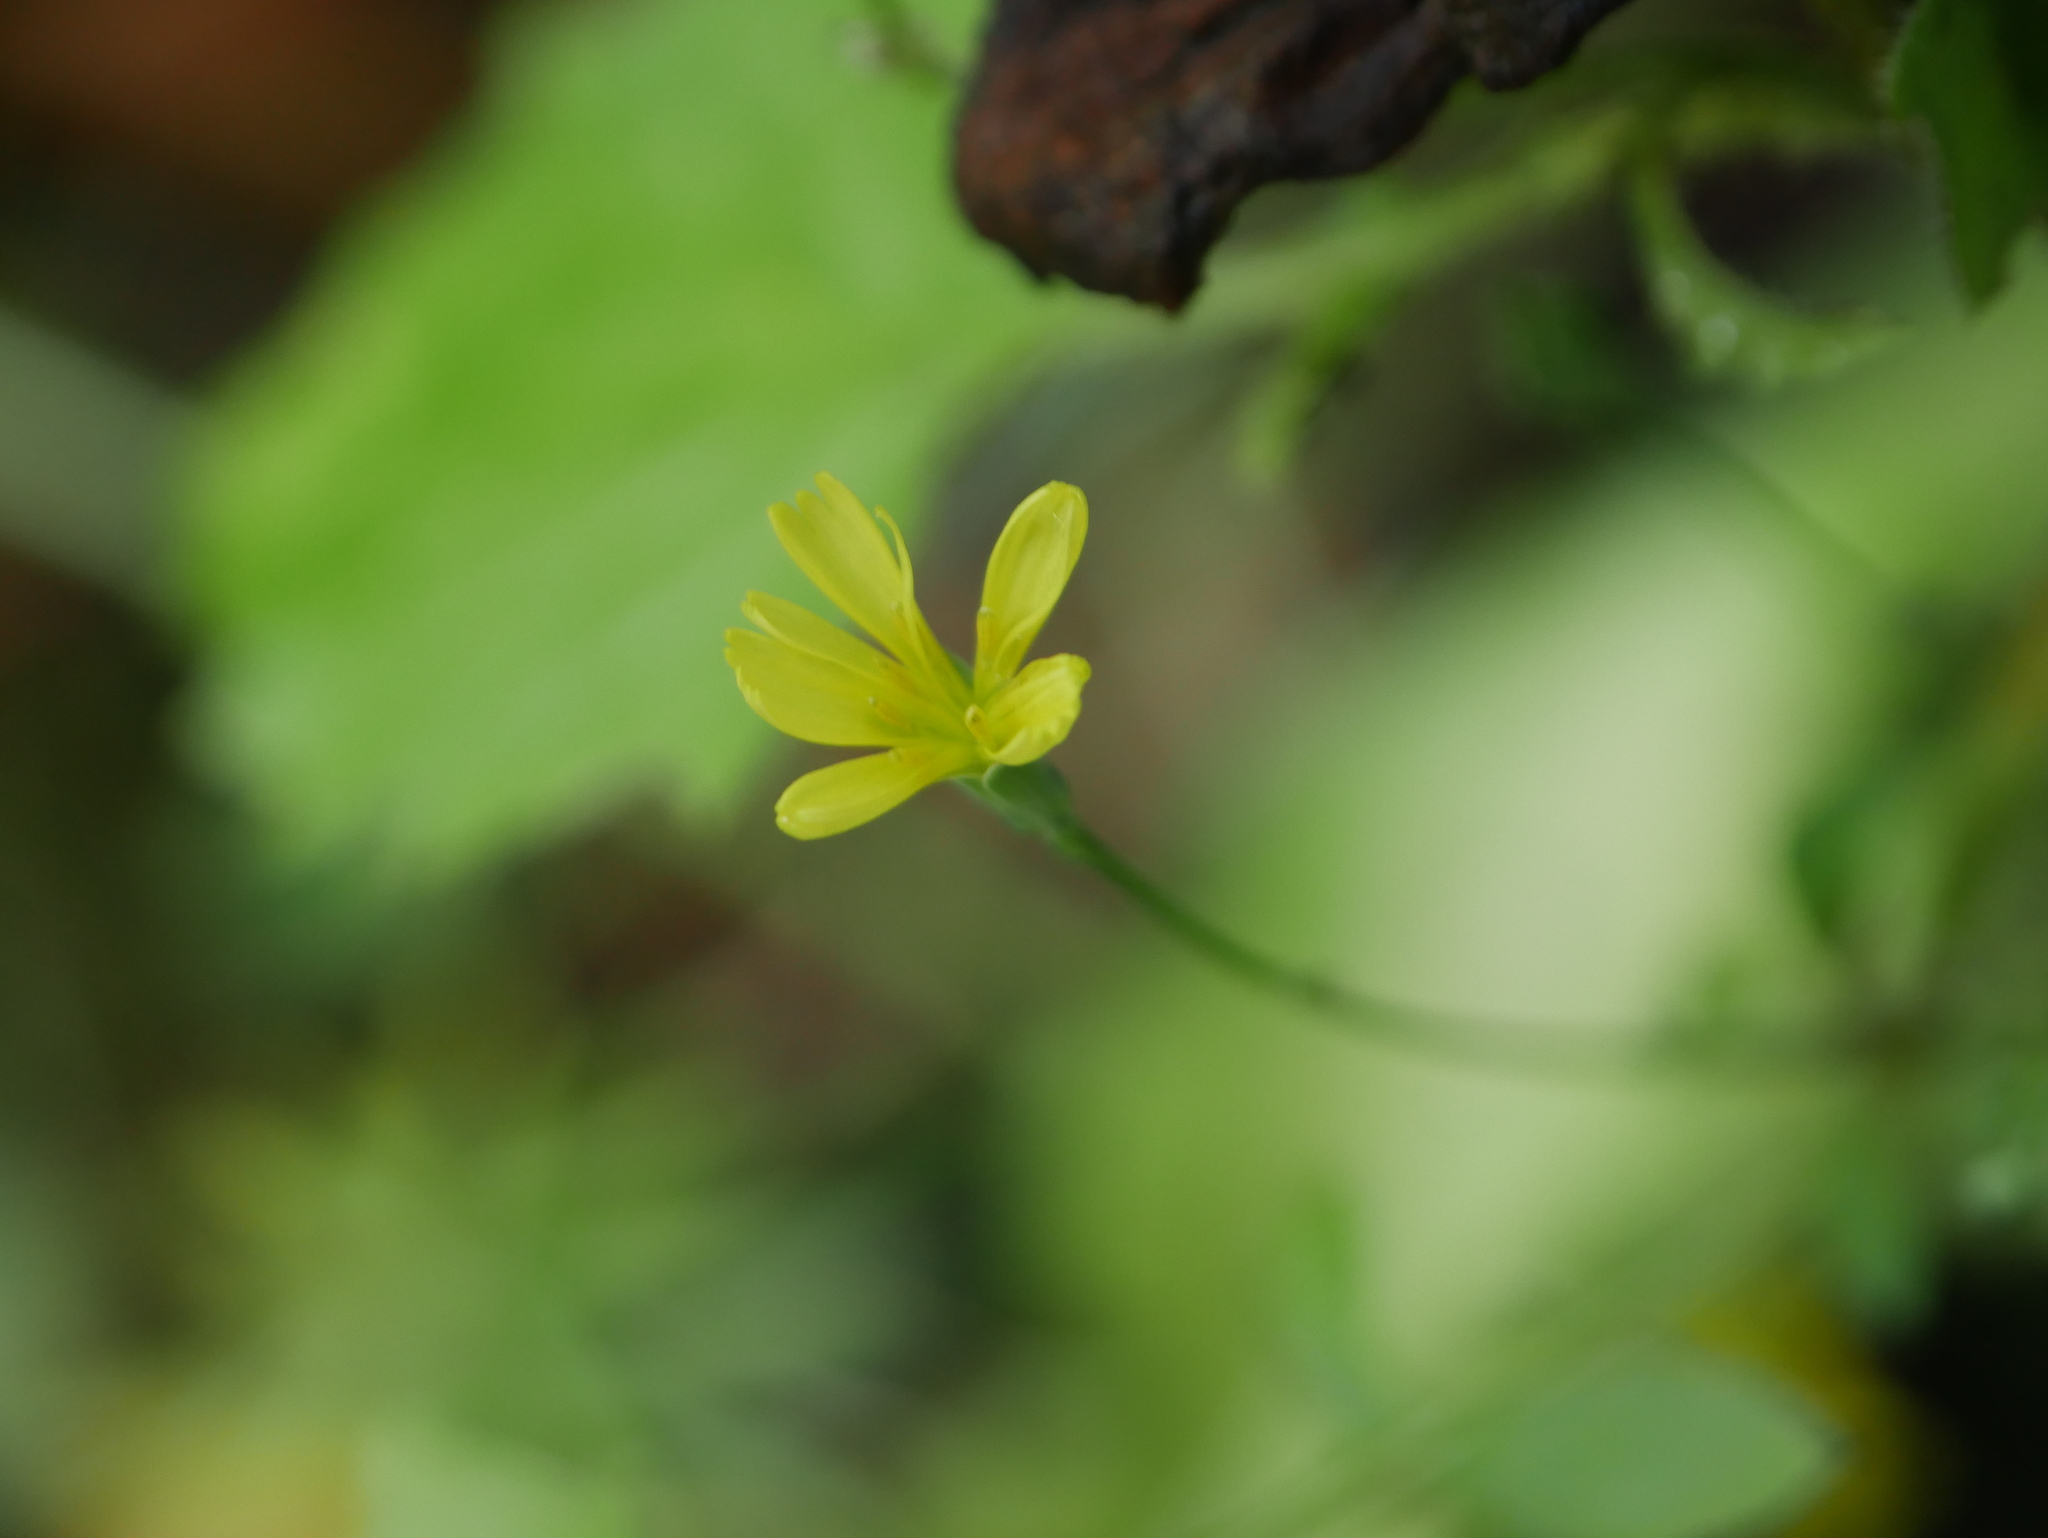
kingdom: Plantae
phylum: Tracheophyta
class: Magnoliopsida
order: Asterales
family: Asteraceae
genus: Lapsana
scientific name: Lapsana communis
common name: Nipplewort
